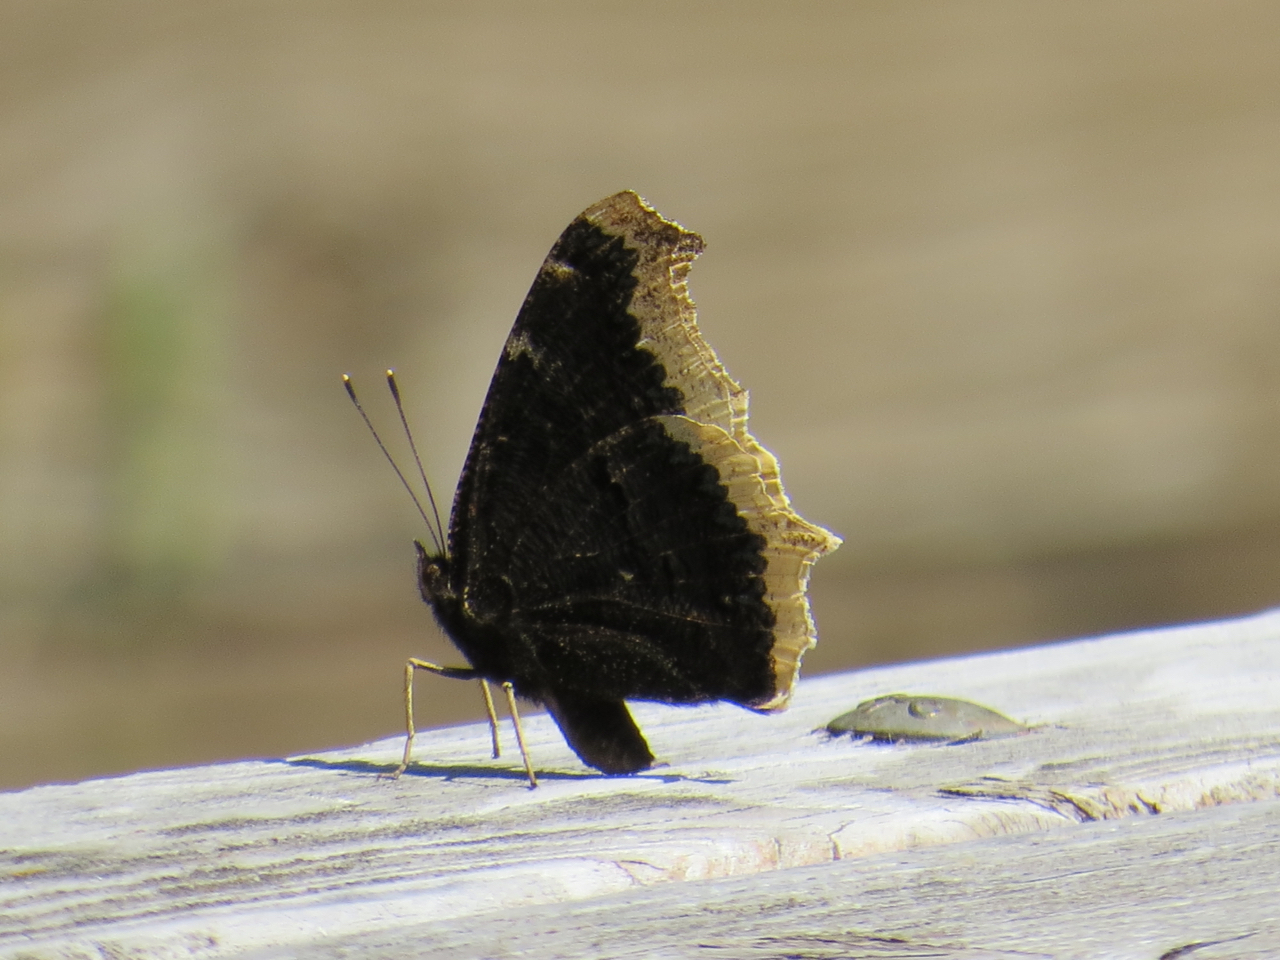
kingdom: Animalia
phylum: Arthropoda
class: Insecta
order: Lepidoptera
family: Nymphalidae
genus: Nymphalis
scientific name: Nymphalis antiopa
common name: Camberwell beauty
